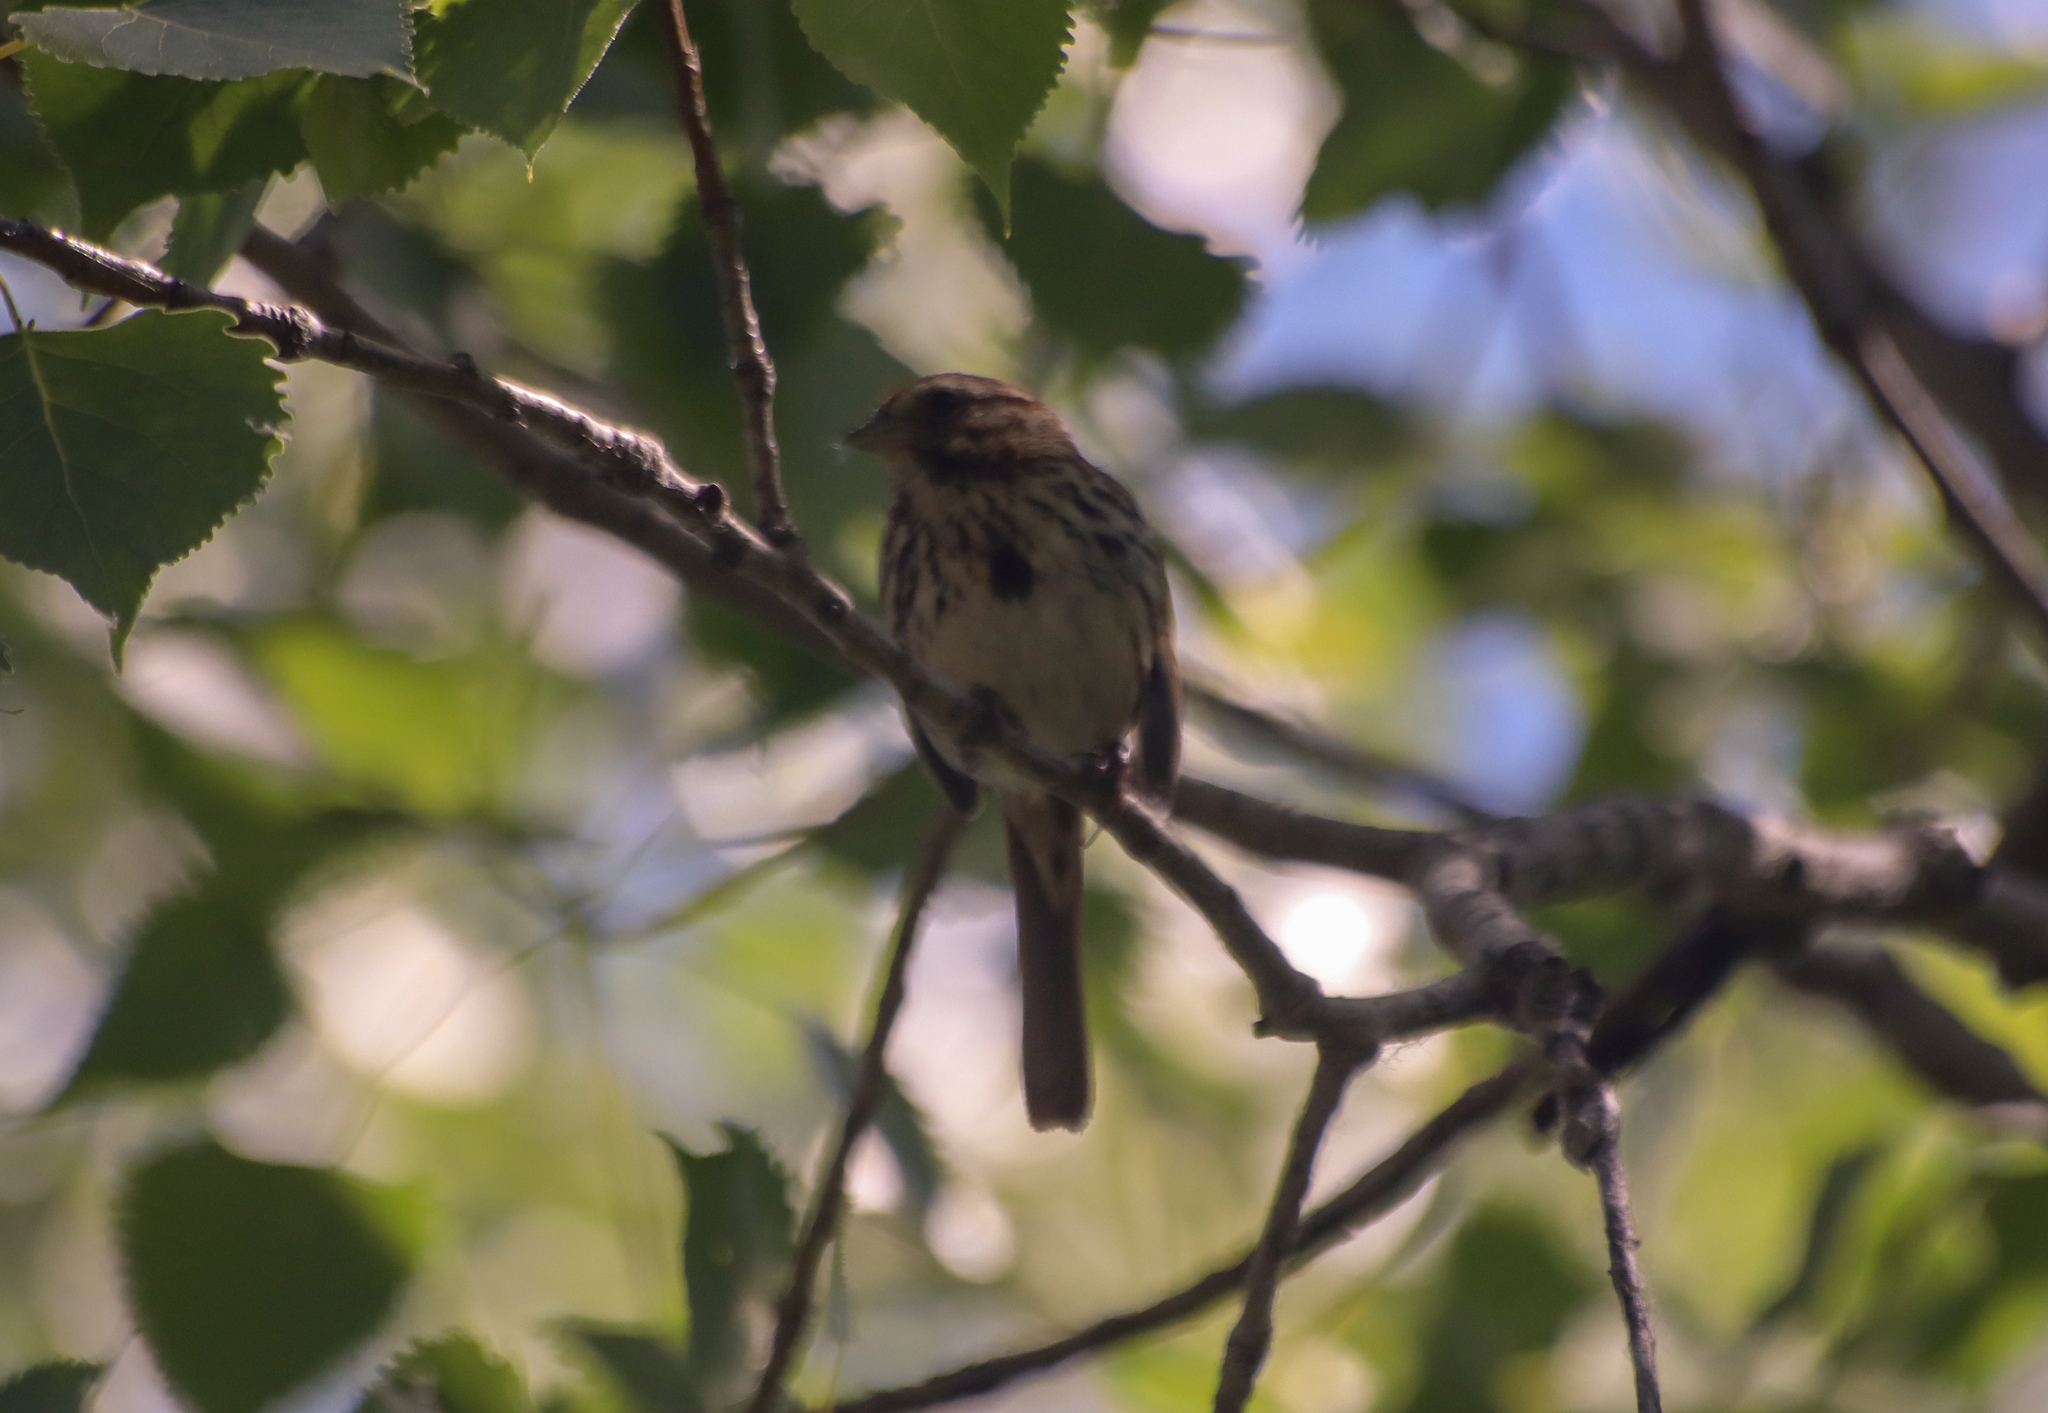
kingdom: Animalia
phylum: Chordata
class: Aves
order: Passeriformes
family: Passerellidae
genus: Melospiza
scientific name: Melospiza melodia
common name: Song sparrow
